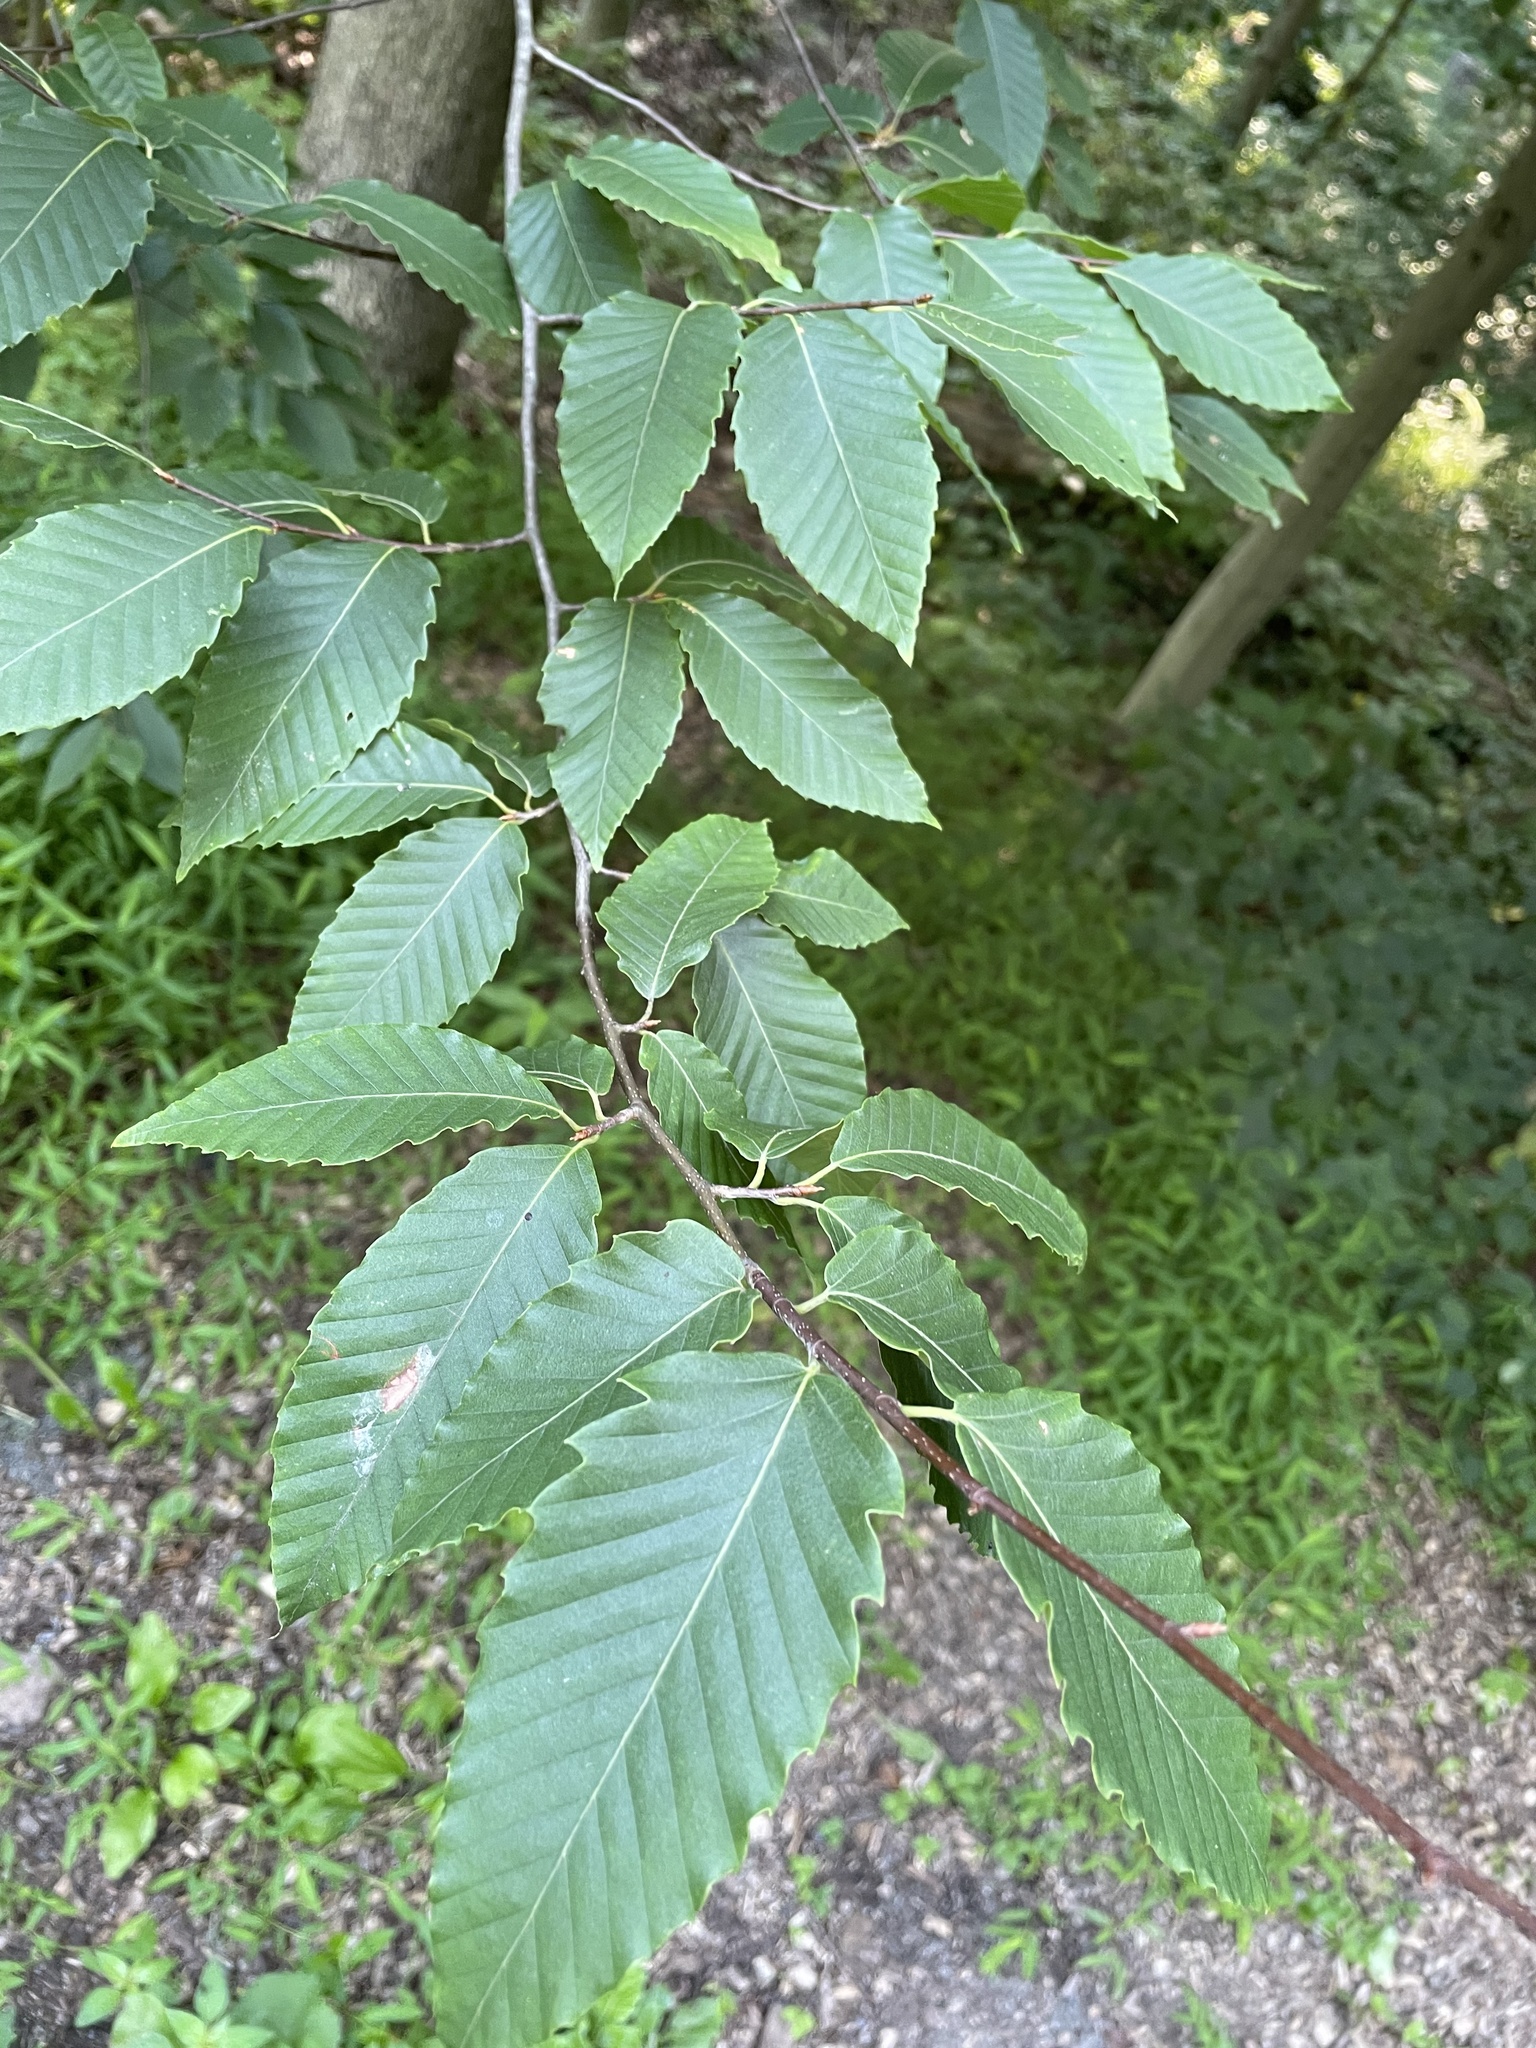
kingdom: Plantae
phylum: Tracheophyta
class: Magnoliopsida
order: Fagales
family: Fagaceae
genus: Fagus
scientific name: Fagus grandifolia
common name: American beech
